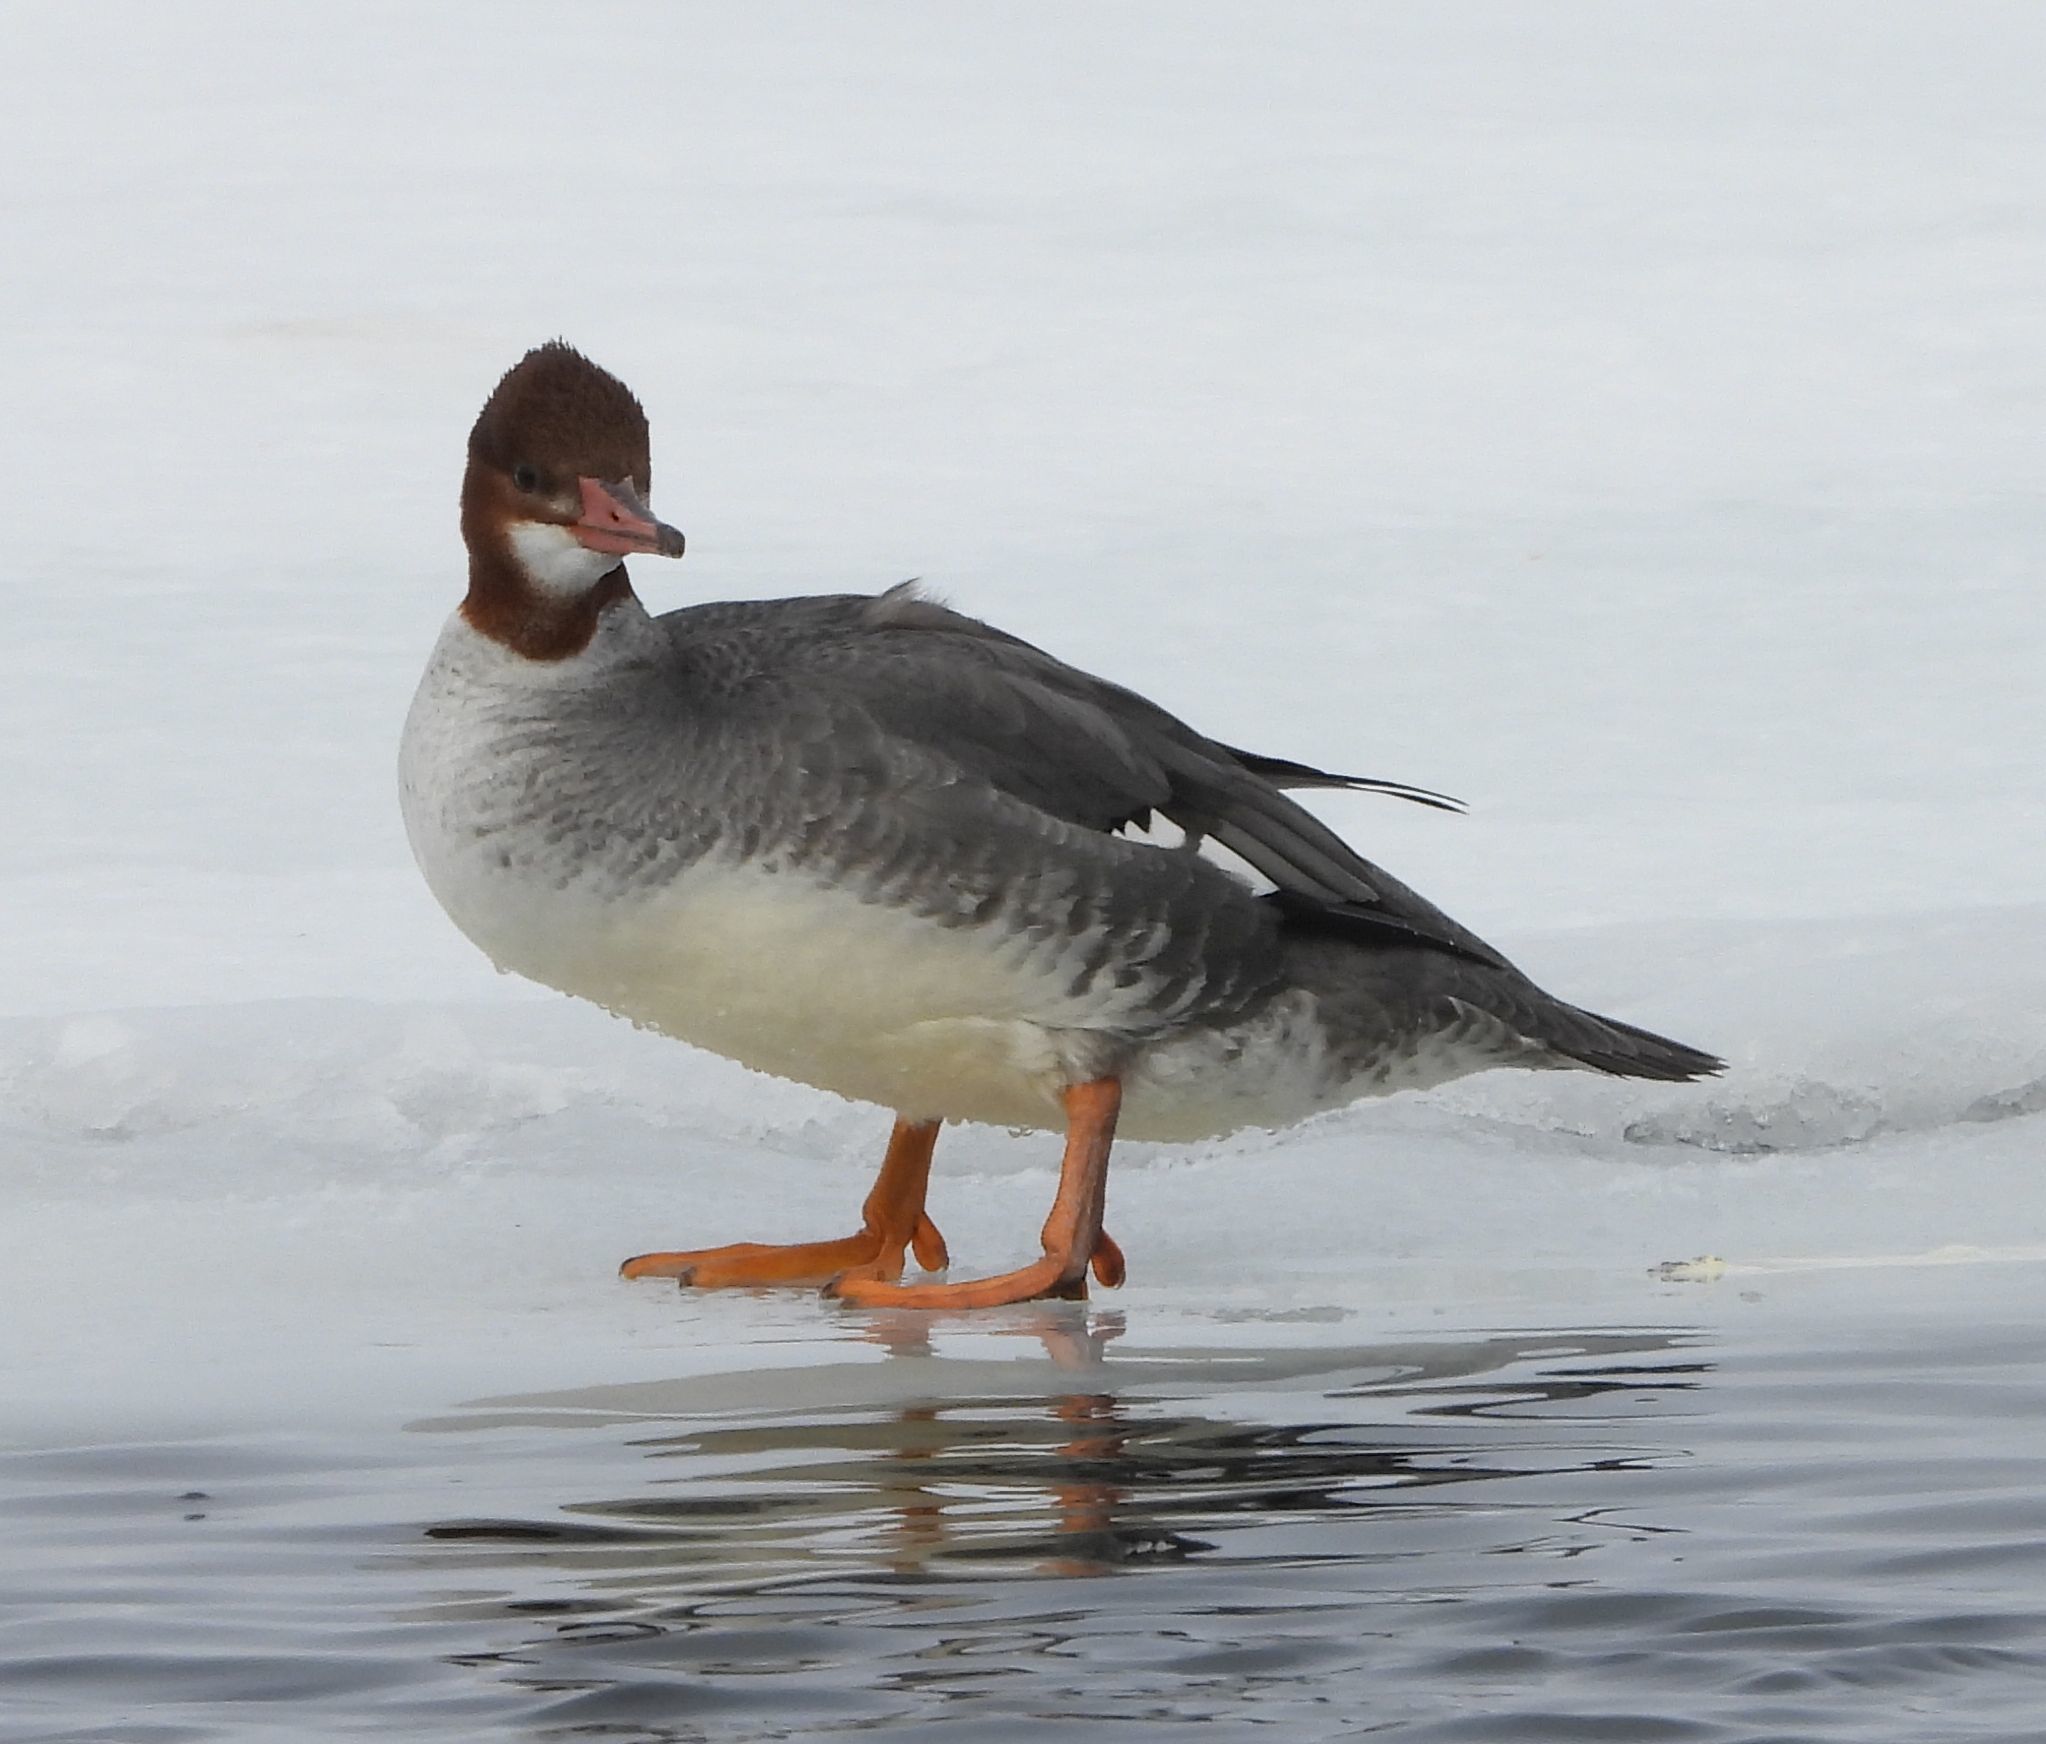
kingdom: Animalia
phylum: Chordata
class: Aves
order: Anseriformes
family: Anatidae
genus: Mergus
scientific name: Mergus merganser
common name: Common merganser
